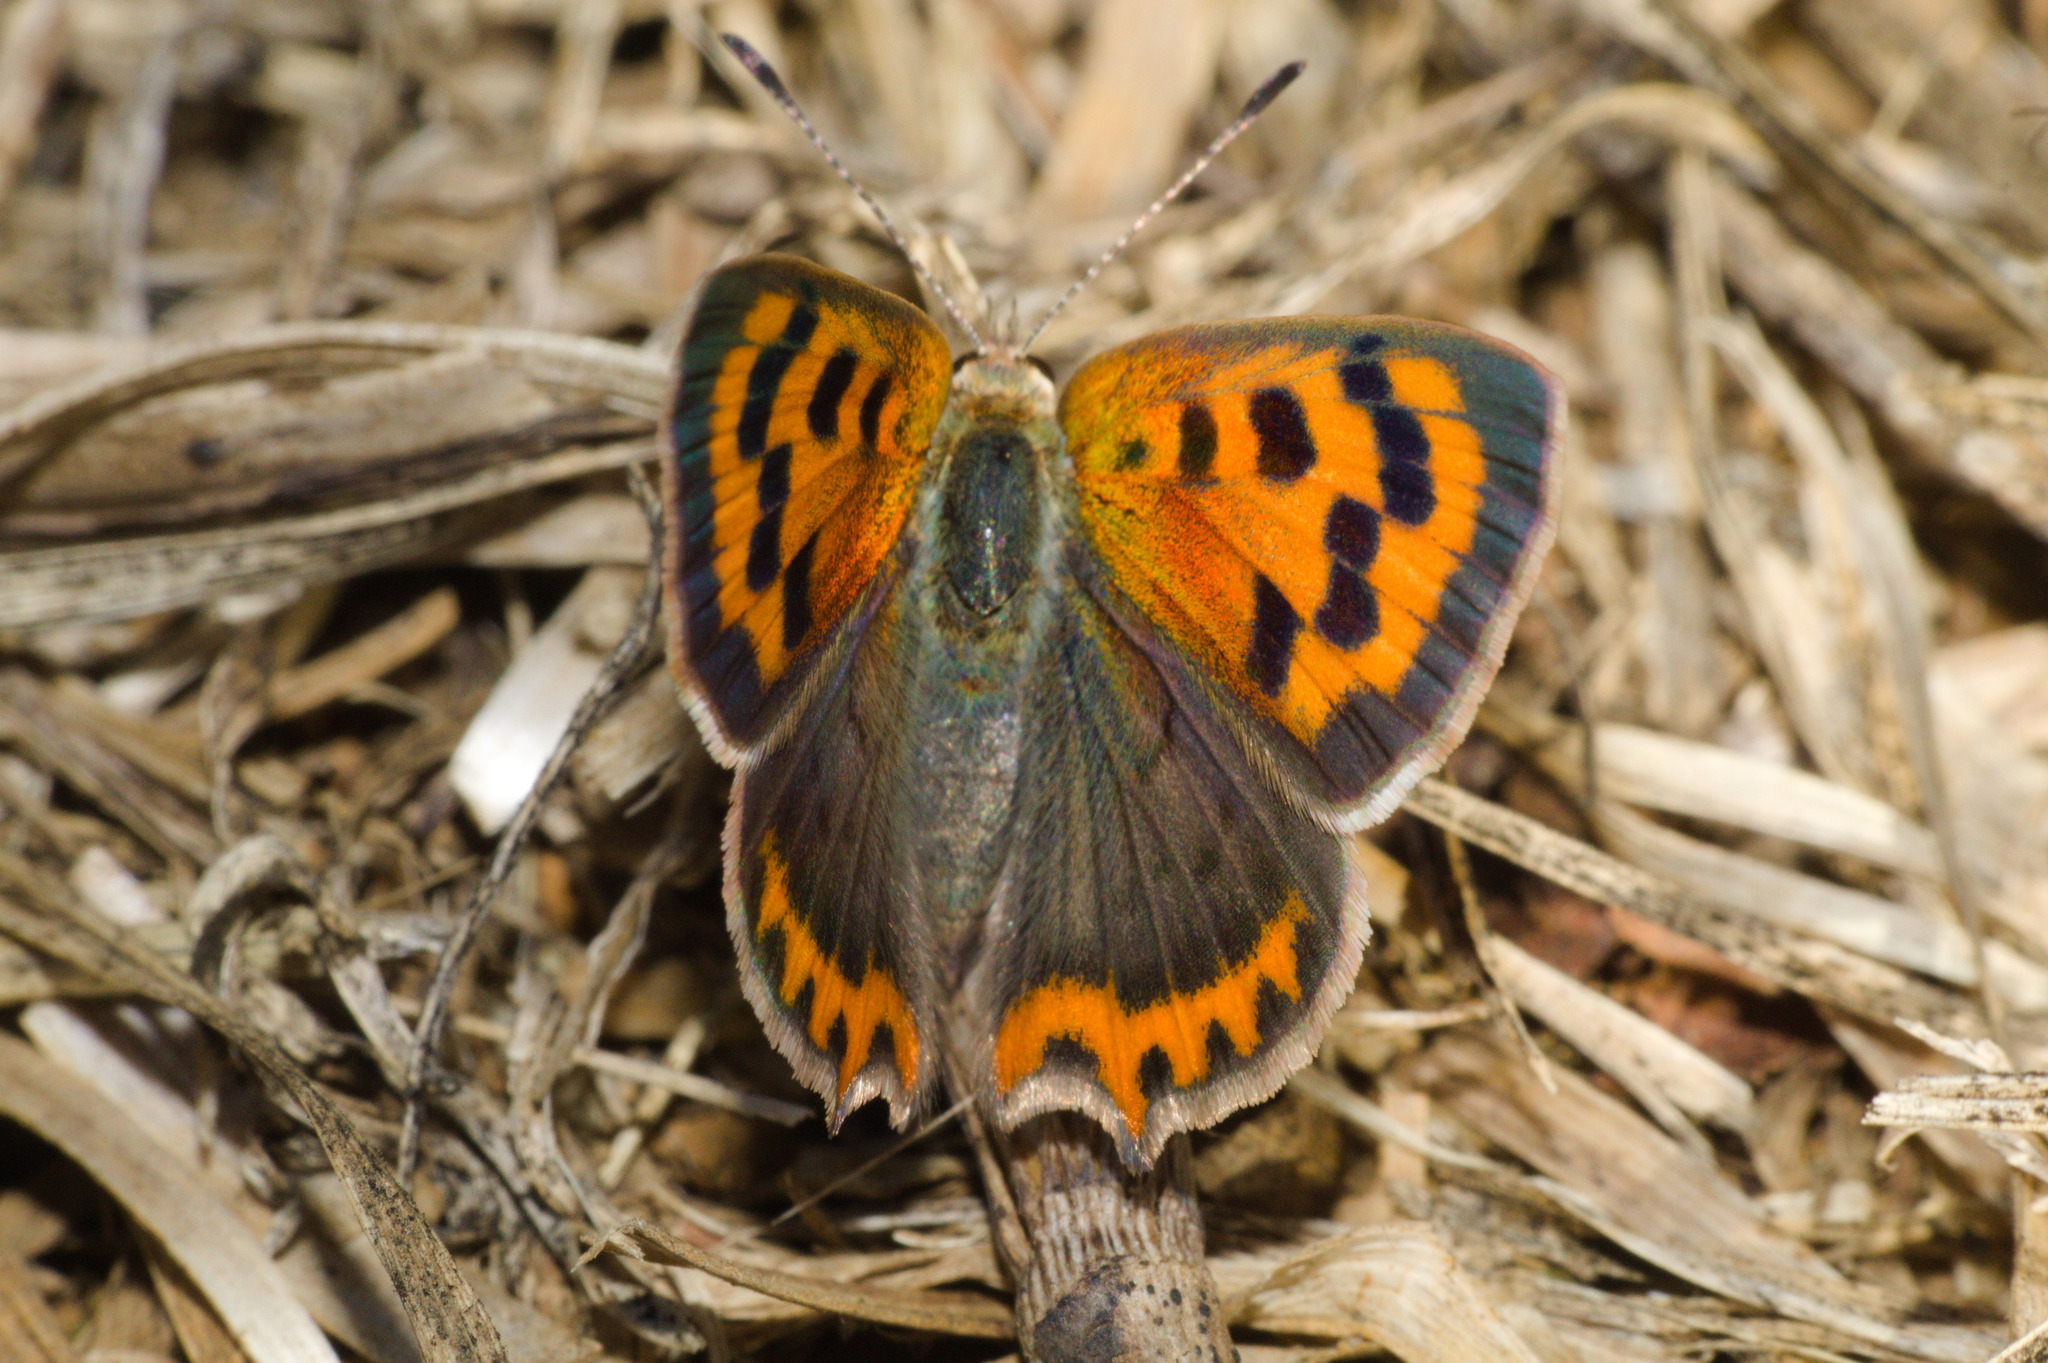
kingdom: Animalia
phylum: Arthropoda
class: Insecta
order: Lepidoptera
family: Lycaenidae
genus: Lycaena
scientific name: Lycaena phlaeas
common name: Small copper
